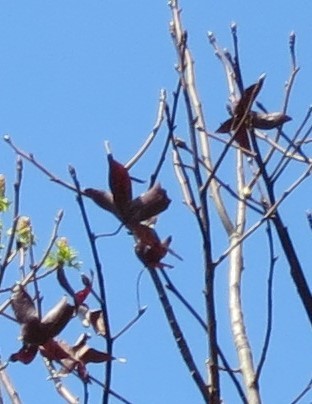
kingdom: Plantae
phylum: Tracheophyta
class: Magnoliopsida
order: Saxifragales
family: Altingiaceae
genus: Liquidambar
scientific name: Liquidambar styraciflua
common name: Sweet gum
